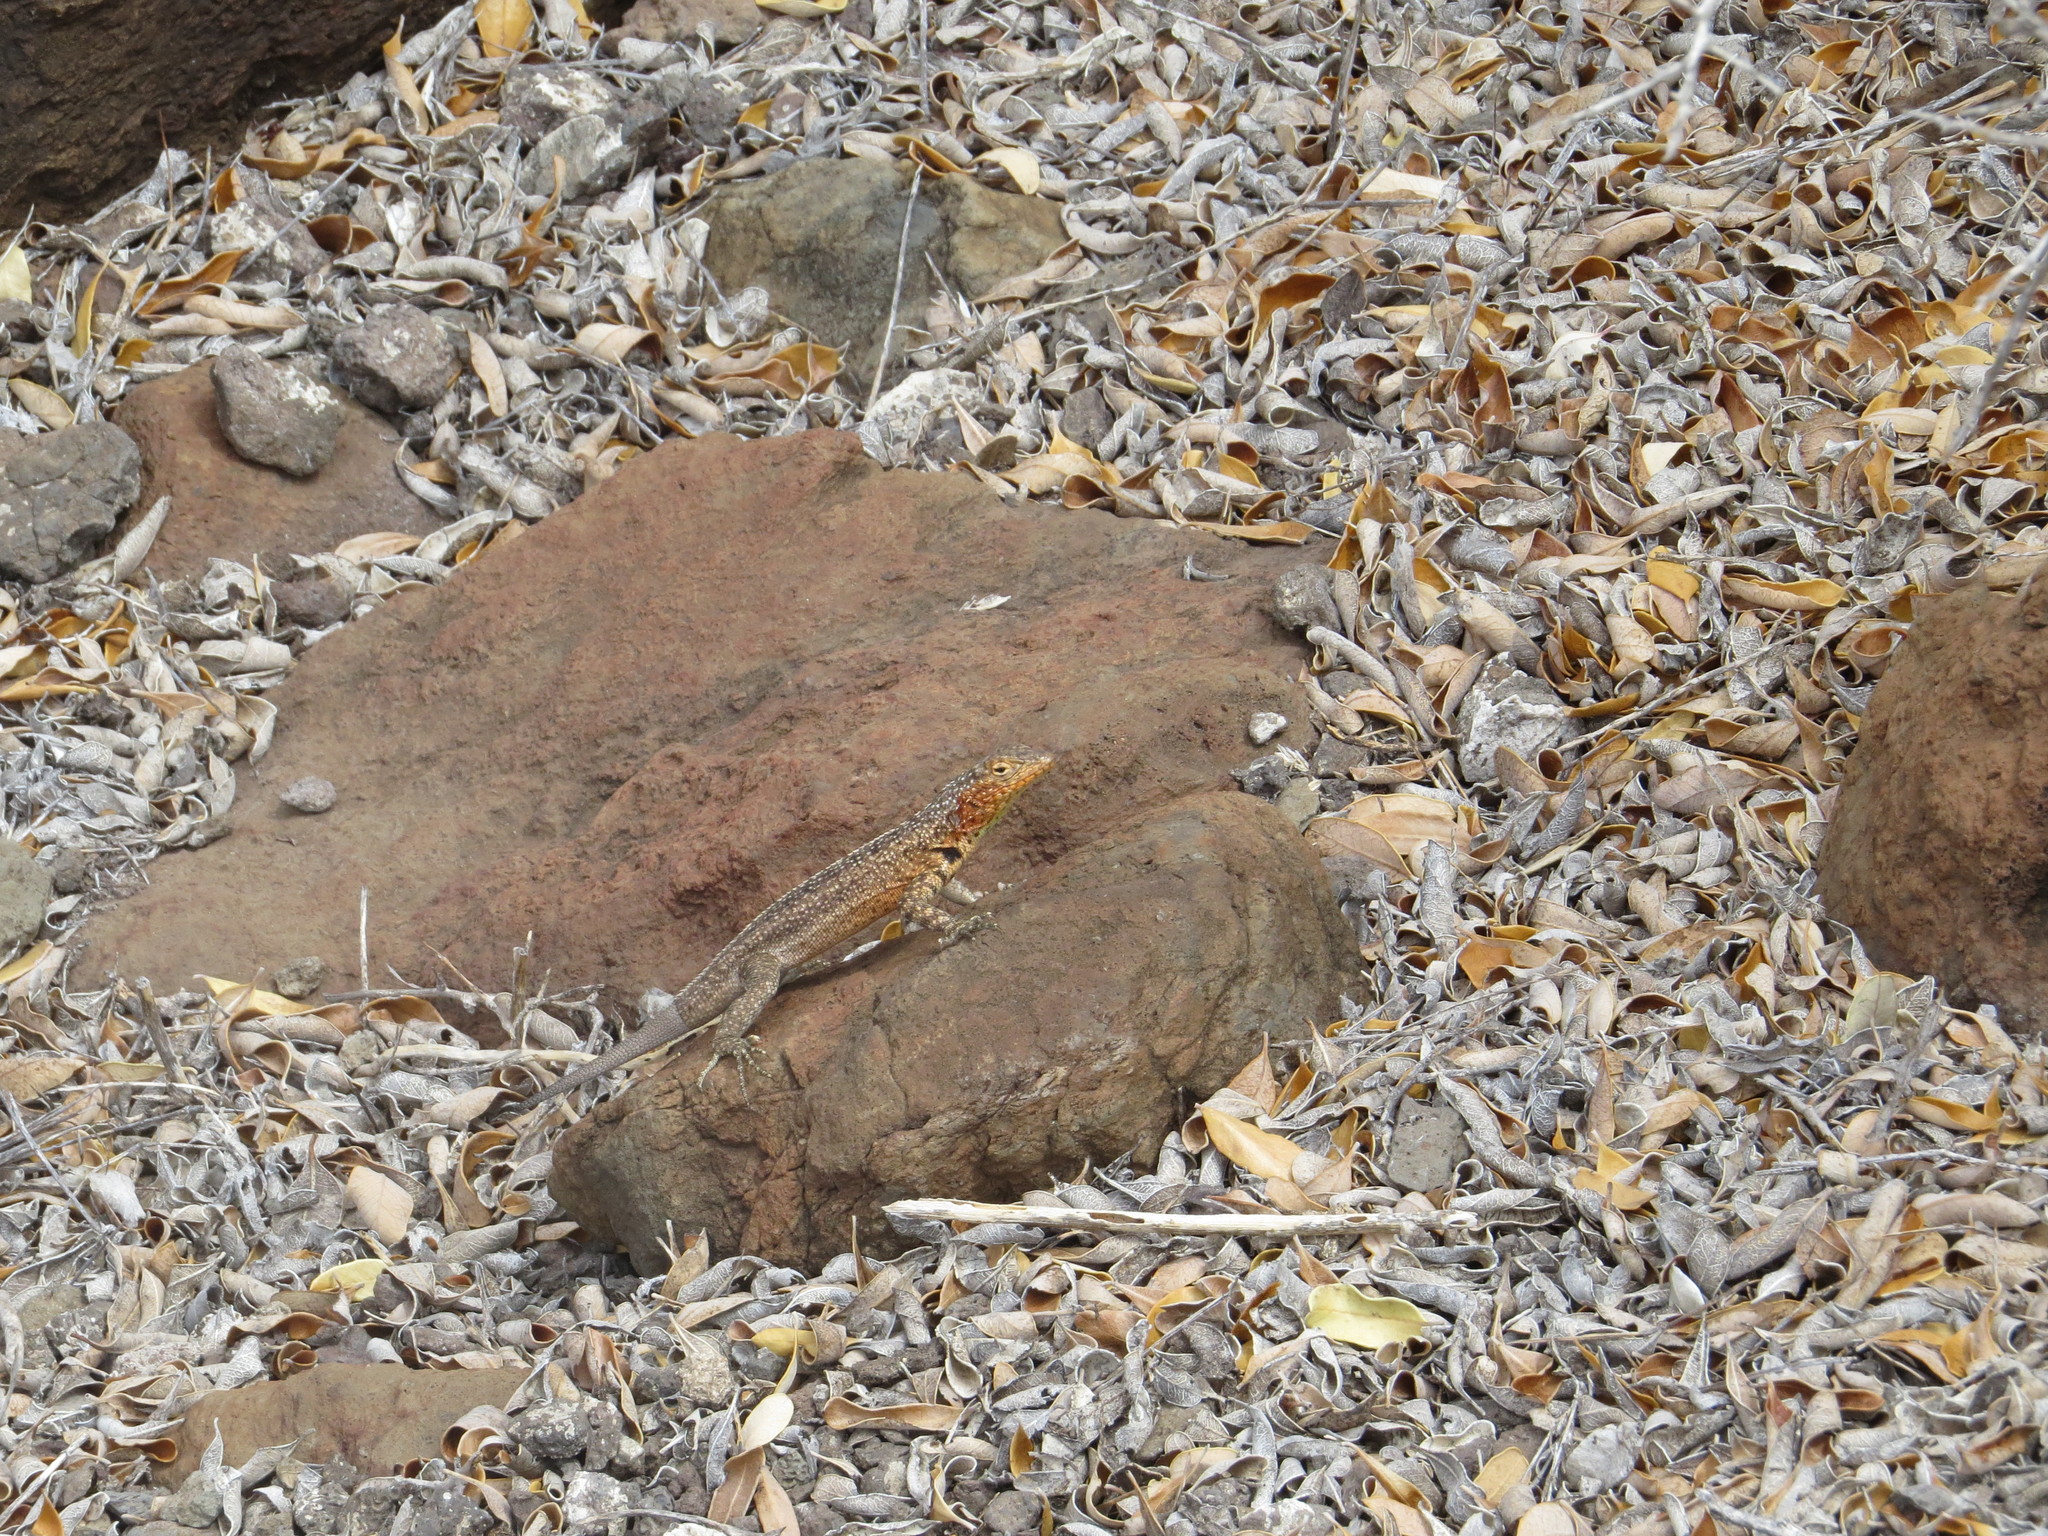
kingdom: Animalia
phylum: Chordata
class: Squamata
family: Tropiduridae
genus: Microlophus
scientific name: Microlophus indefatigabilis
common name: Galapagos lava lizard
